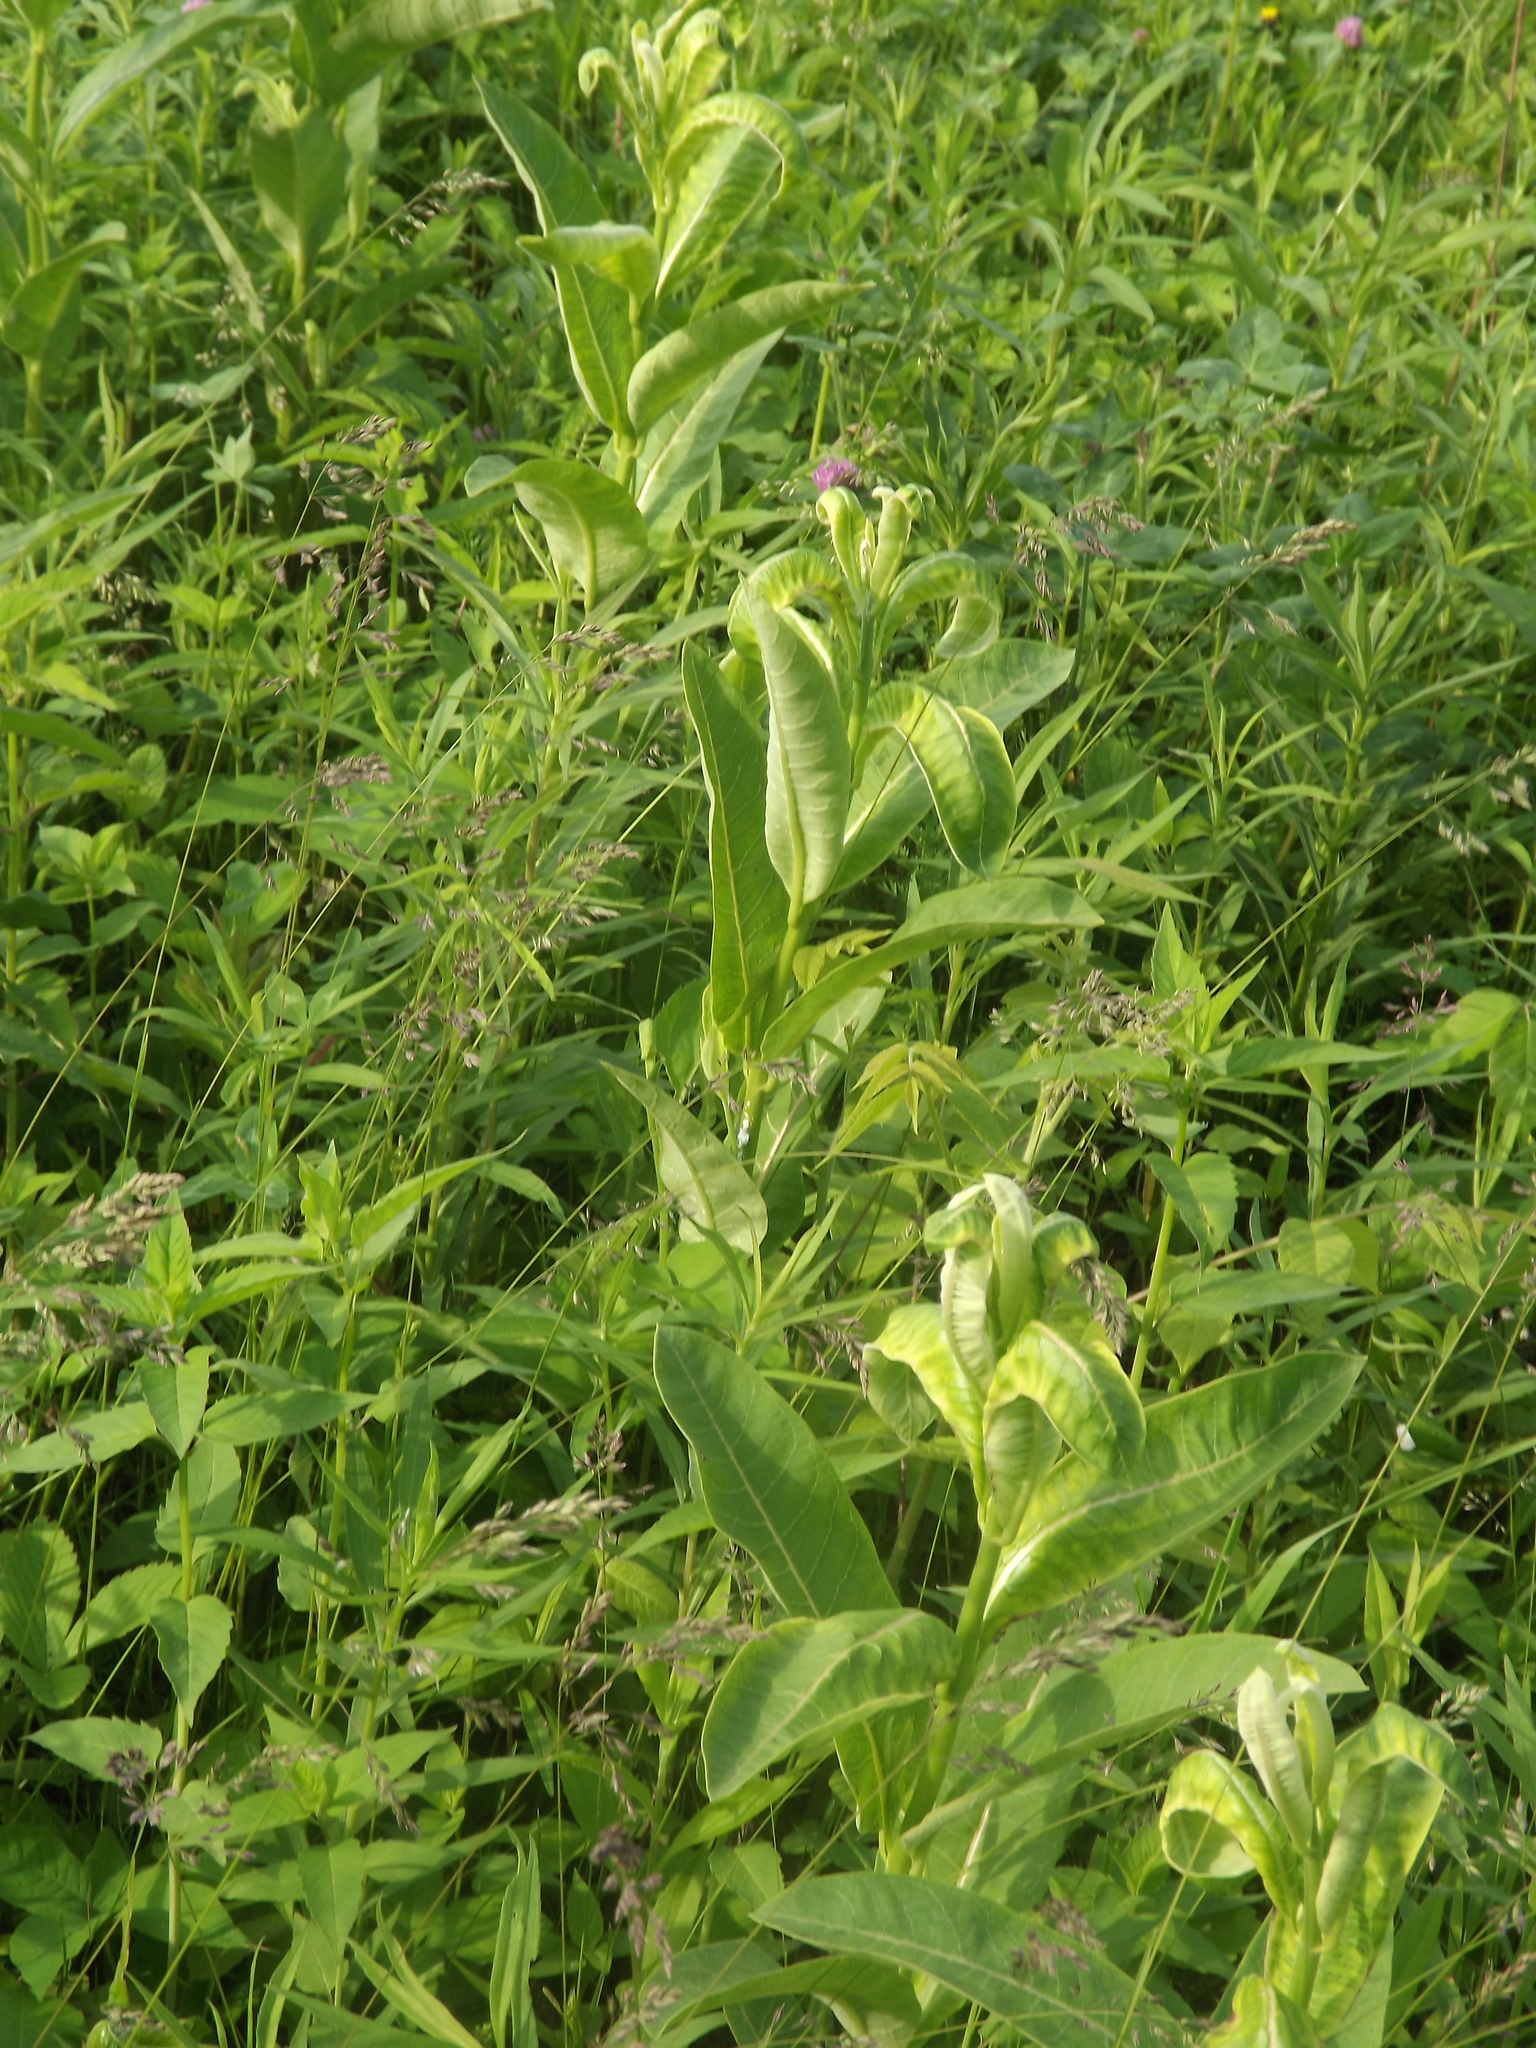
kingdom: Plantae
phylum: Tracheophyta
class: Magnoliopsida
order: Gentianales
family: Apocynaceae
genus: Asclepias
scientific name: Asclepias syriaca
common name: Common milkweed
